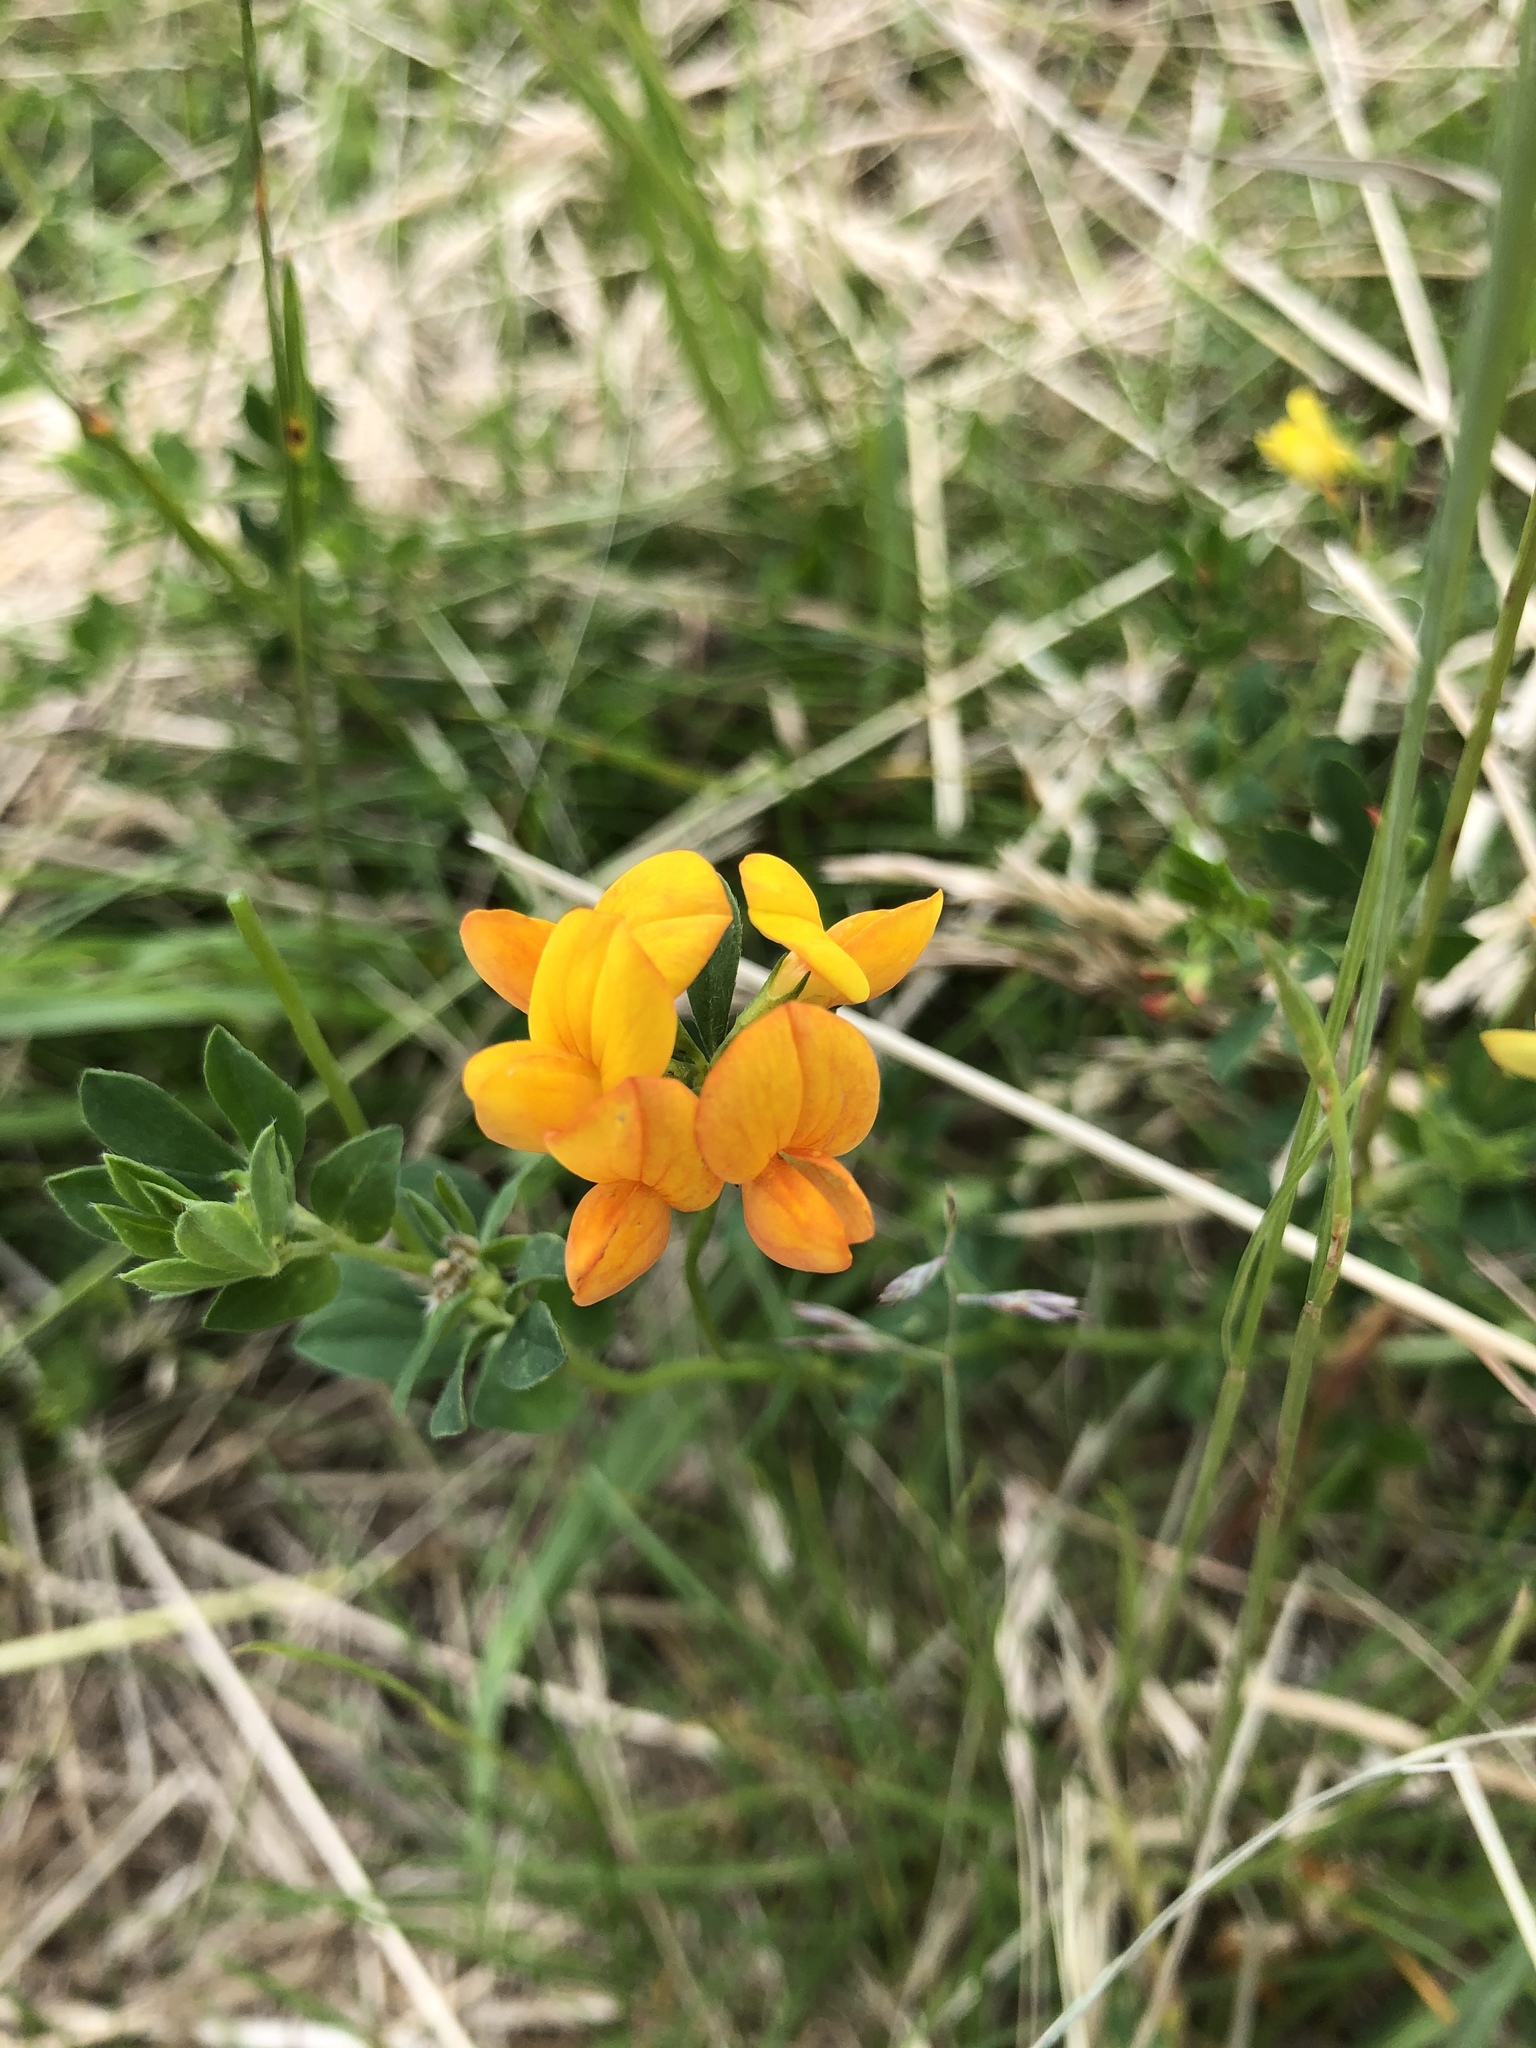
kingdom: Plantae
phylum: Tracheophyta
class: Magnoliopsida
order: Fabales
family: Fabaceae
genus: Lotus
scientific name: Lotus ucrainicus
